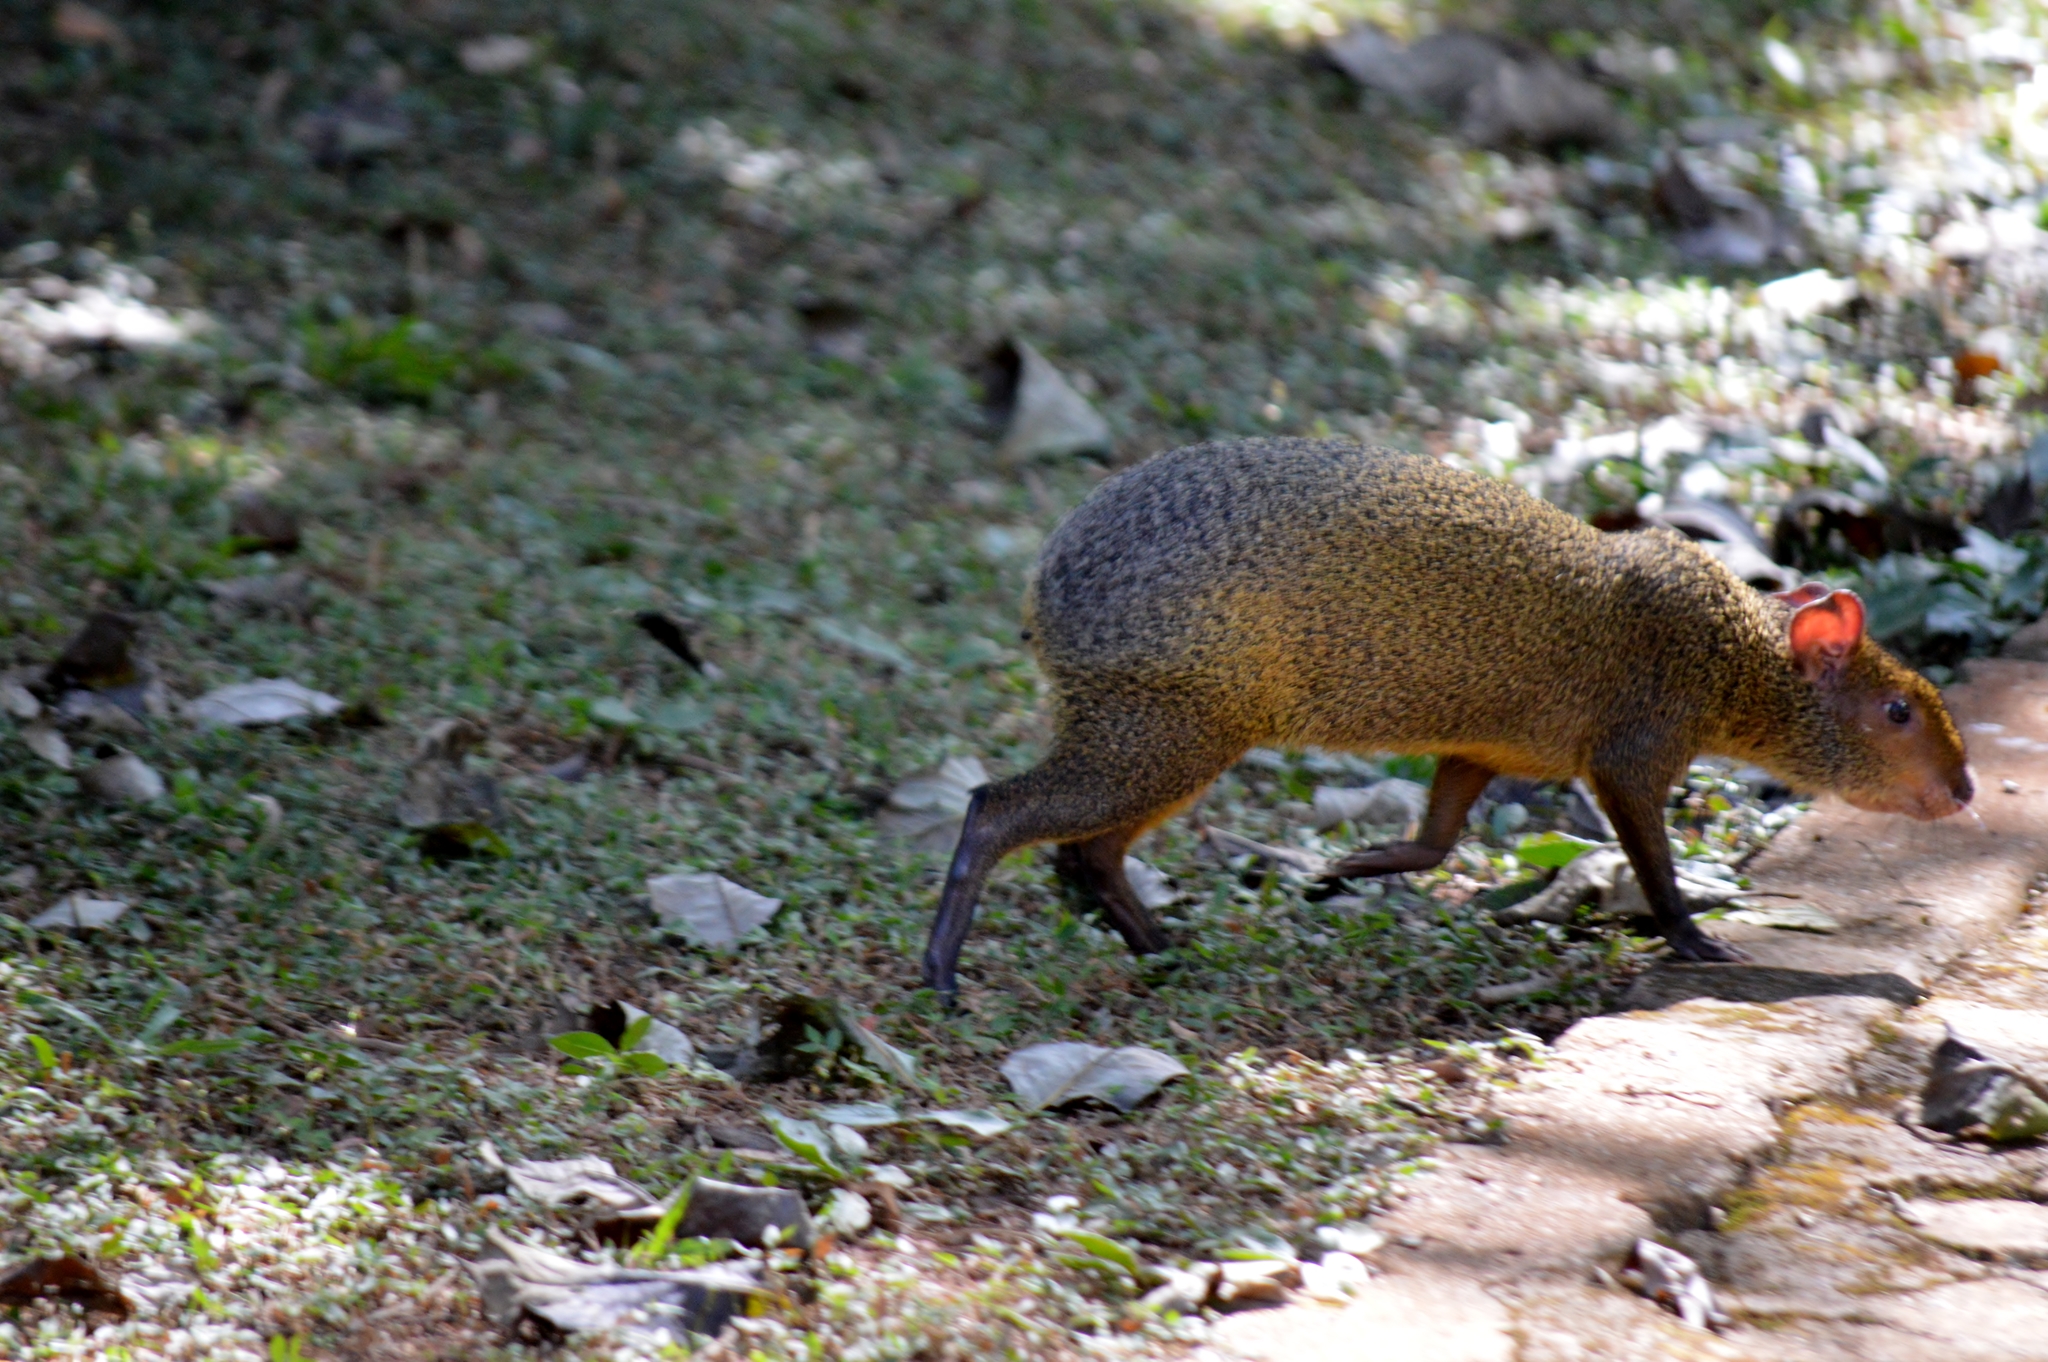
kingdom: Animalia
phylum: Chordata
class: Mammalia
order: Rodentia
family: Dasyproctidae
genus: Dasyprocta
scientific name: Dasyprocta azarae
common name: Azara's agouti
